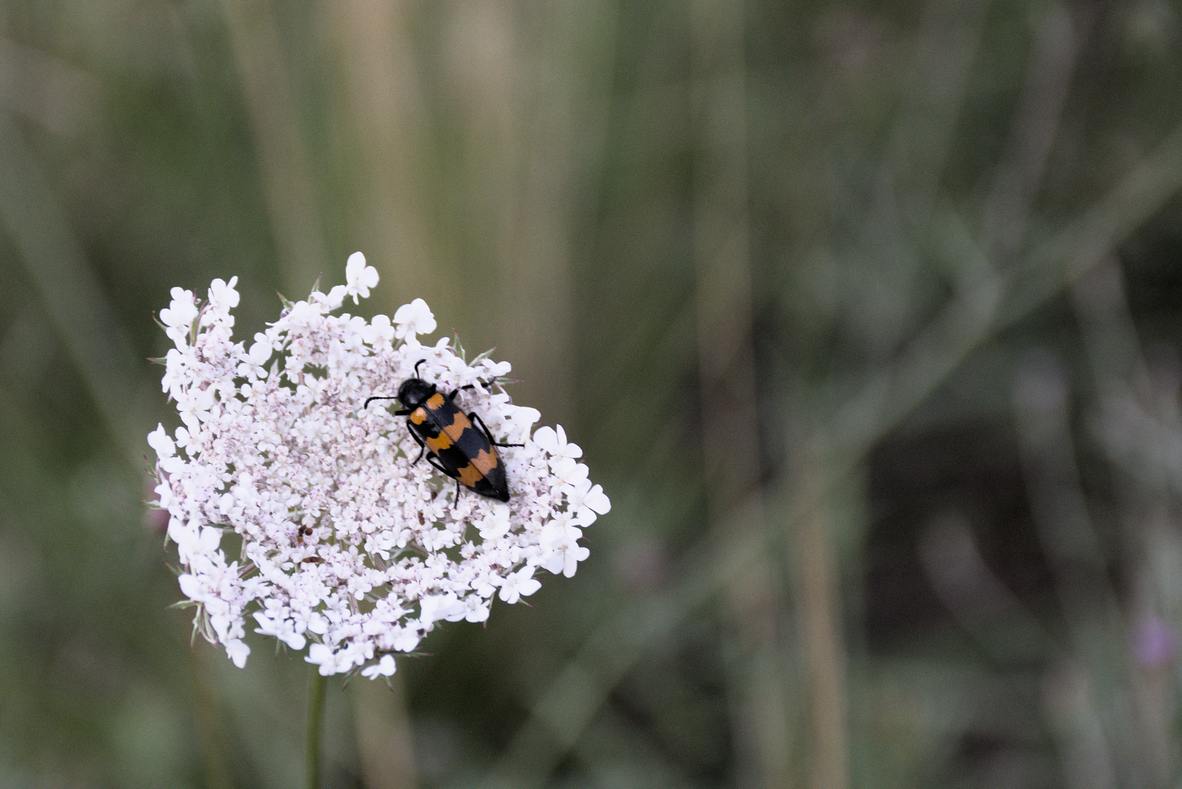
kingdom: Animalia
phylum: Arthropoda
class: Insecta
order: Coleoptera
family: Meloidae
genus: Mylabris
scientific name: Mylabris variabilis
